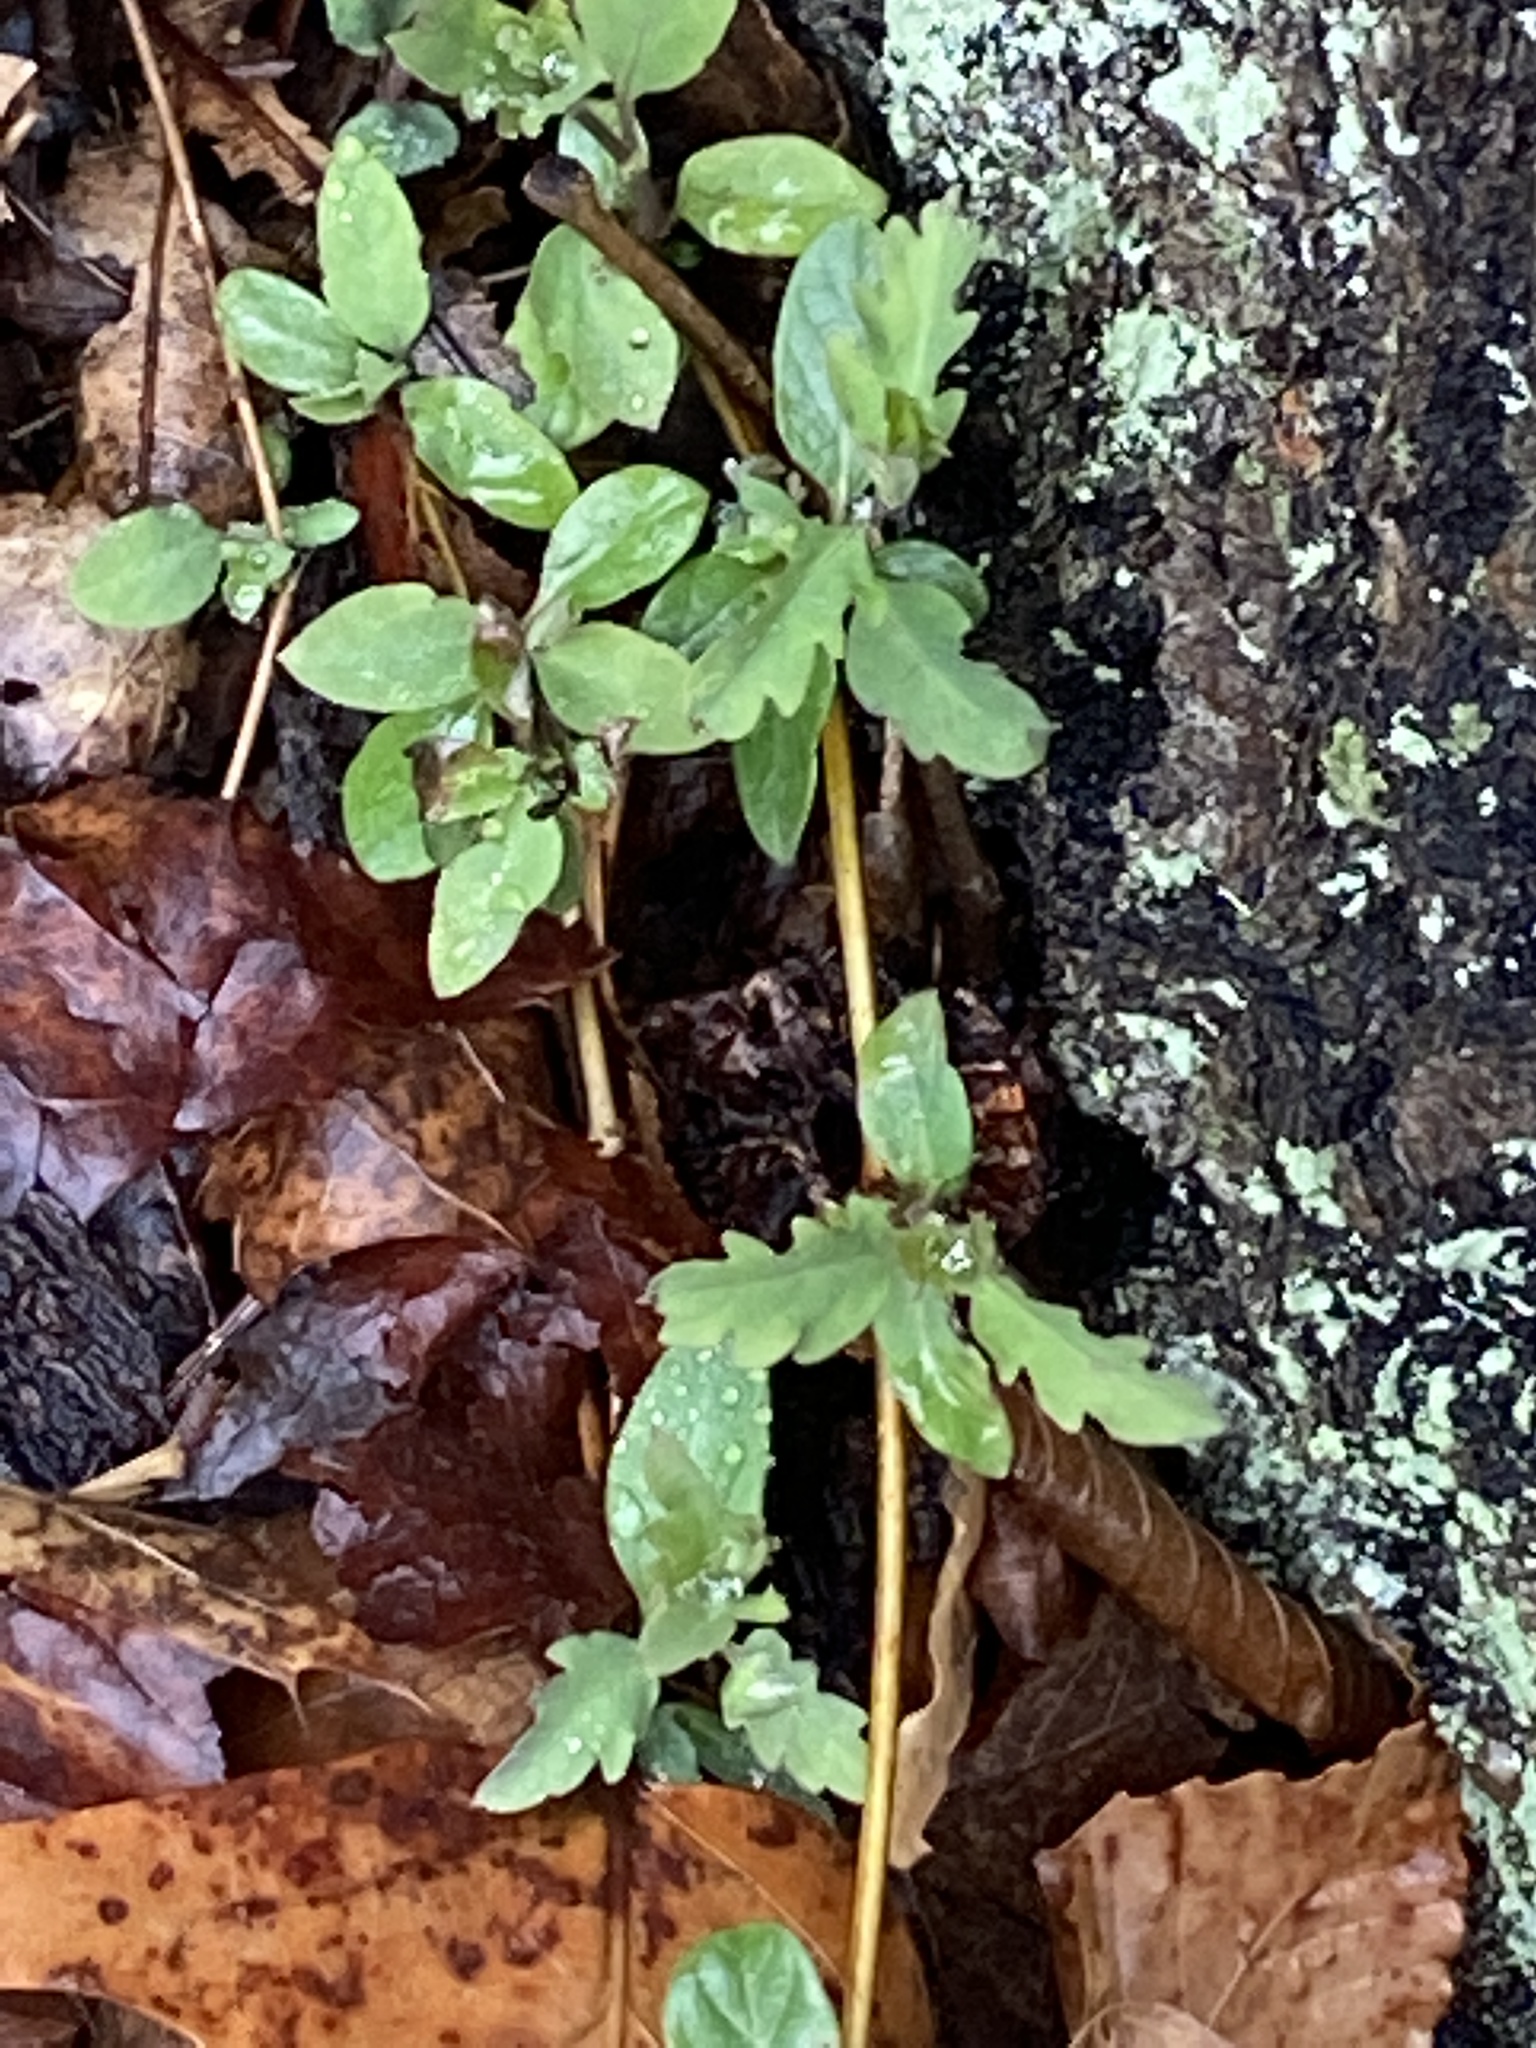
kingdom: Plantae
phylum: Tracheophyta
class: Magnoliopsida
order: Dipsacales
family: Caprifoliaceae
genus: Lonicera
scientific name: Lonicera japonica
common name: Japanese honeysuckle
